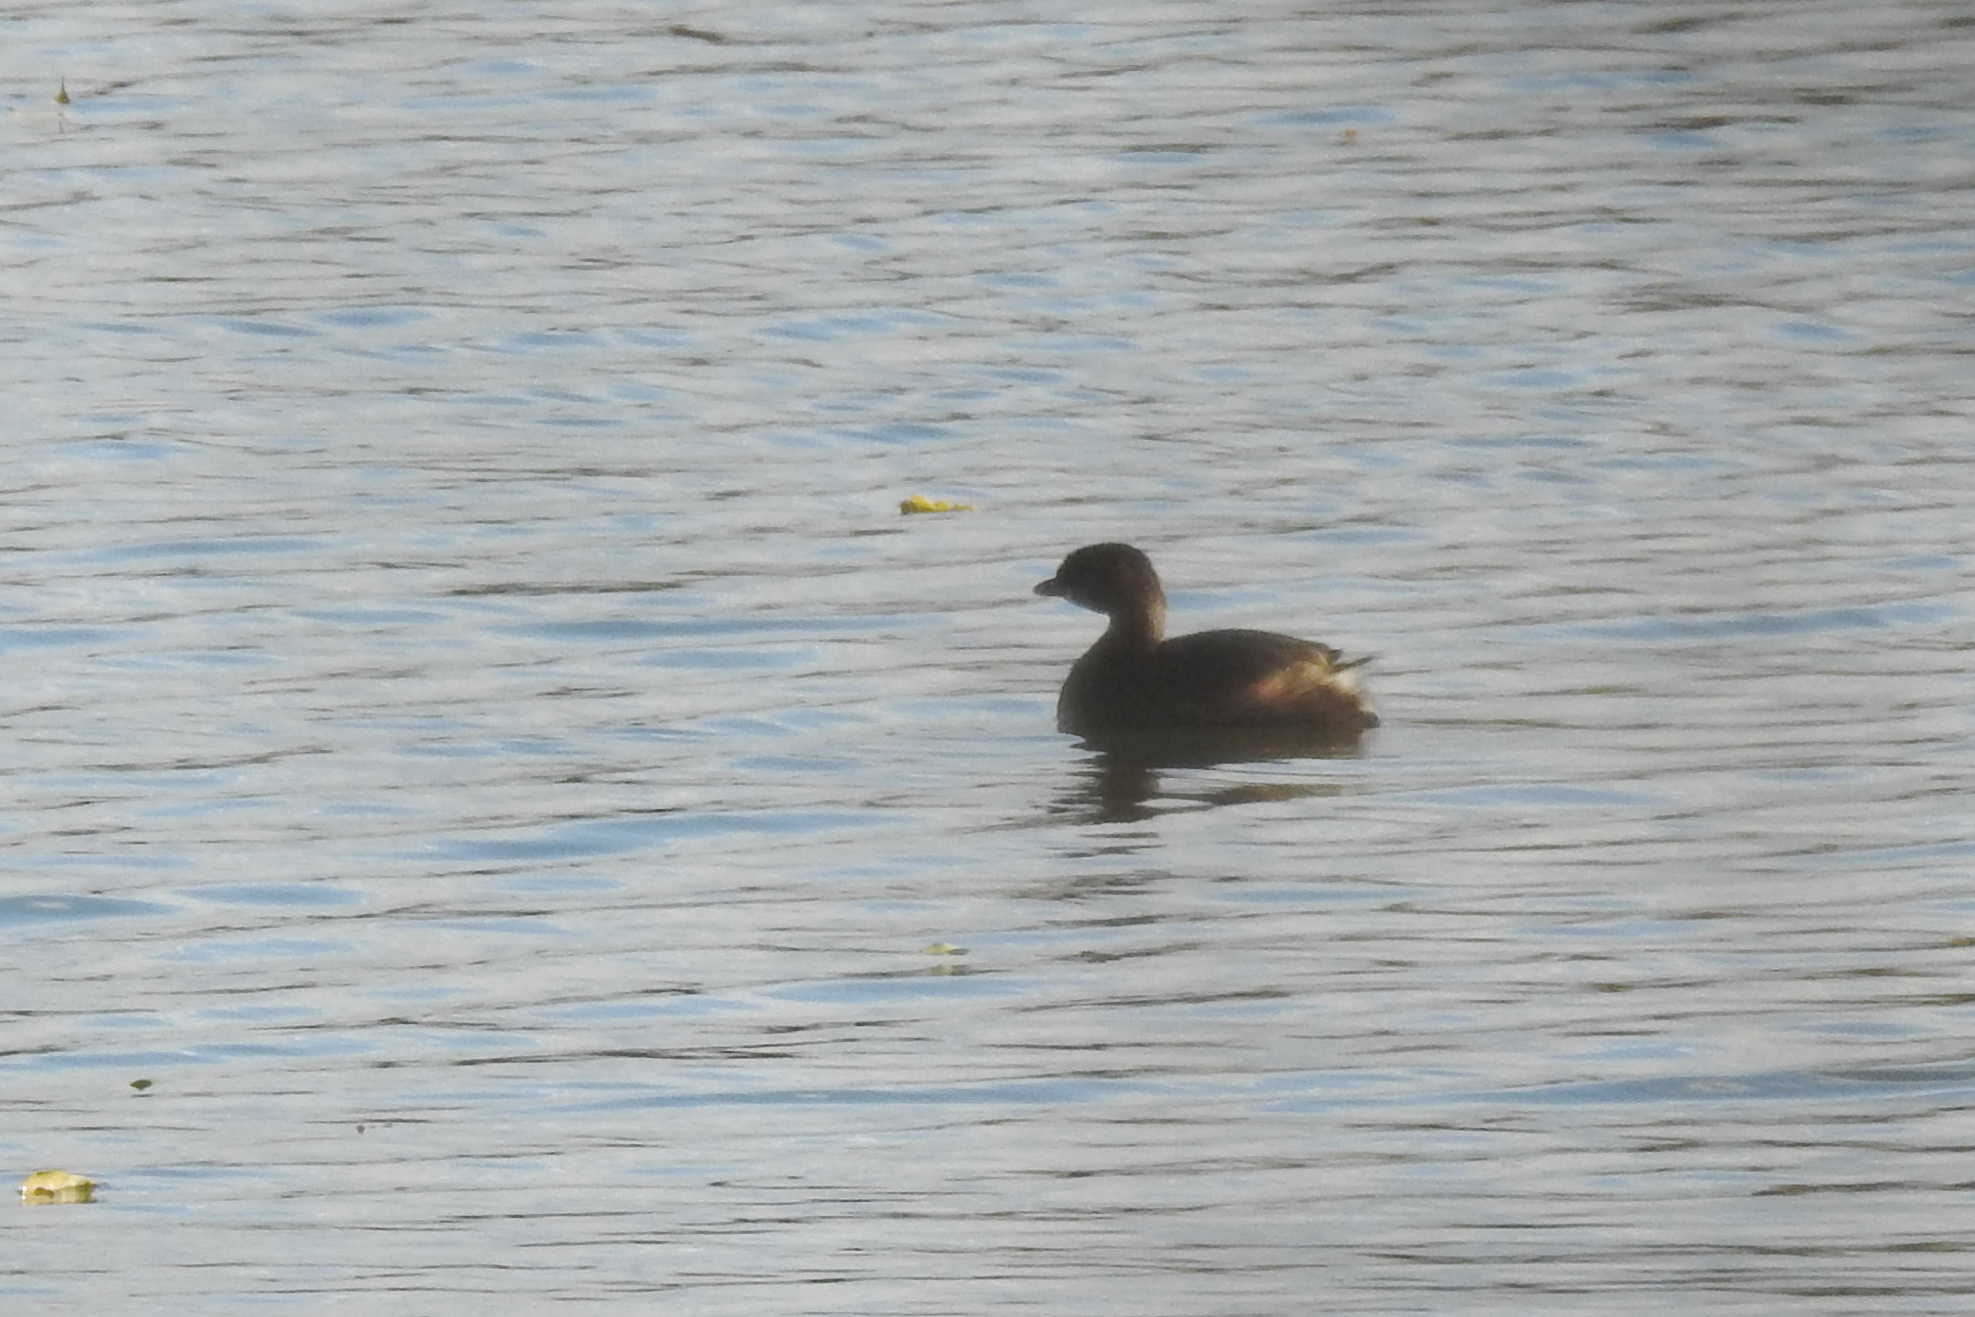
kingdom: Animalia
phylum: Chordata
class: Aves
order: Podicipediformes
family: Podicipedidae
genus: Podilymbus
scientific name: Podilymbus podiceps
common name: Pied-billed grebe
